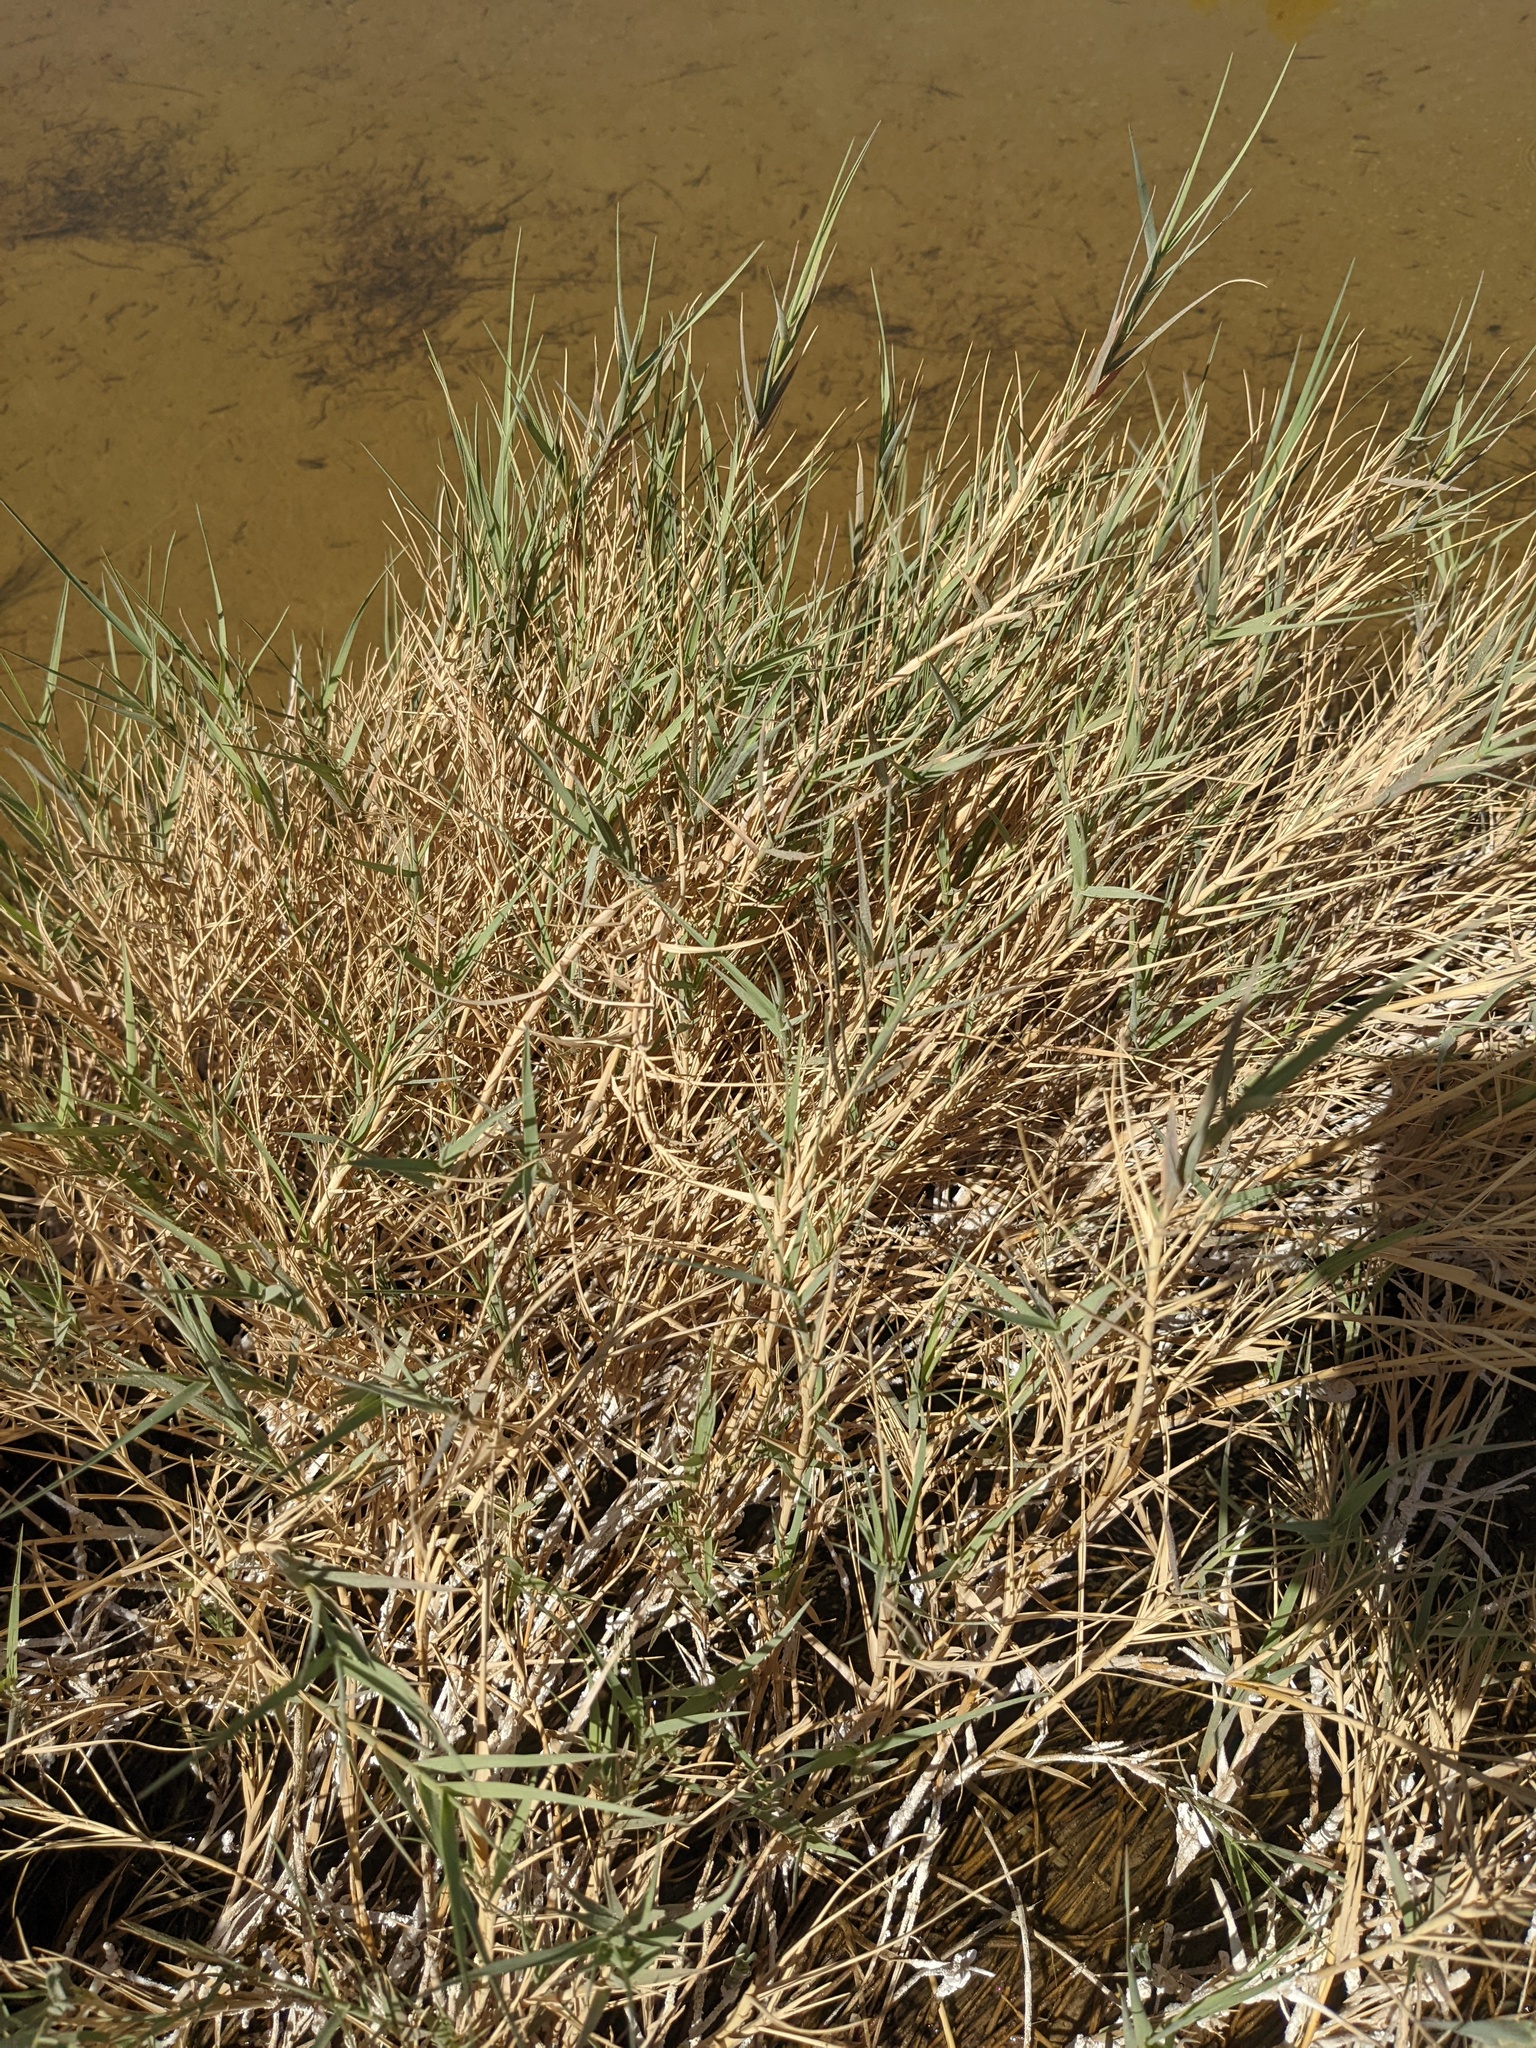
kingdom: Plantae
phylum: Tracheophyta
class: Liliopsida
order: Poales
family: Poaceae
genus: Distichlis
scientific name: Distichlis spicata
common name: Saltgrass
